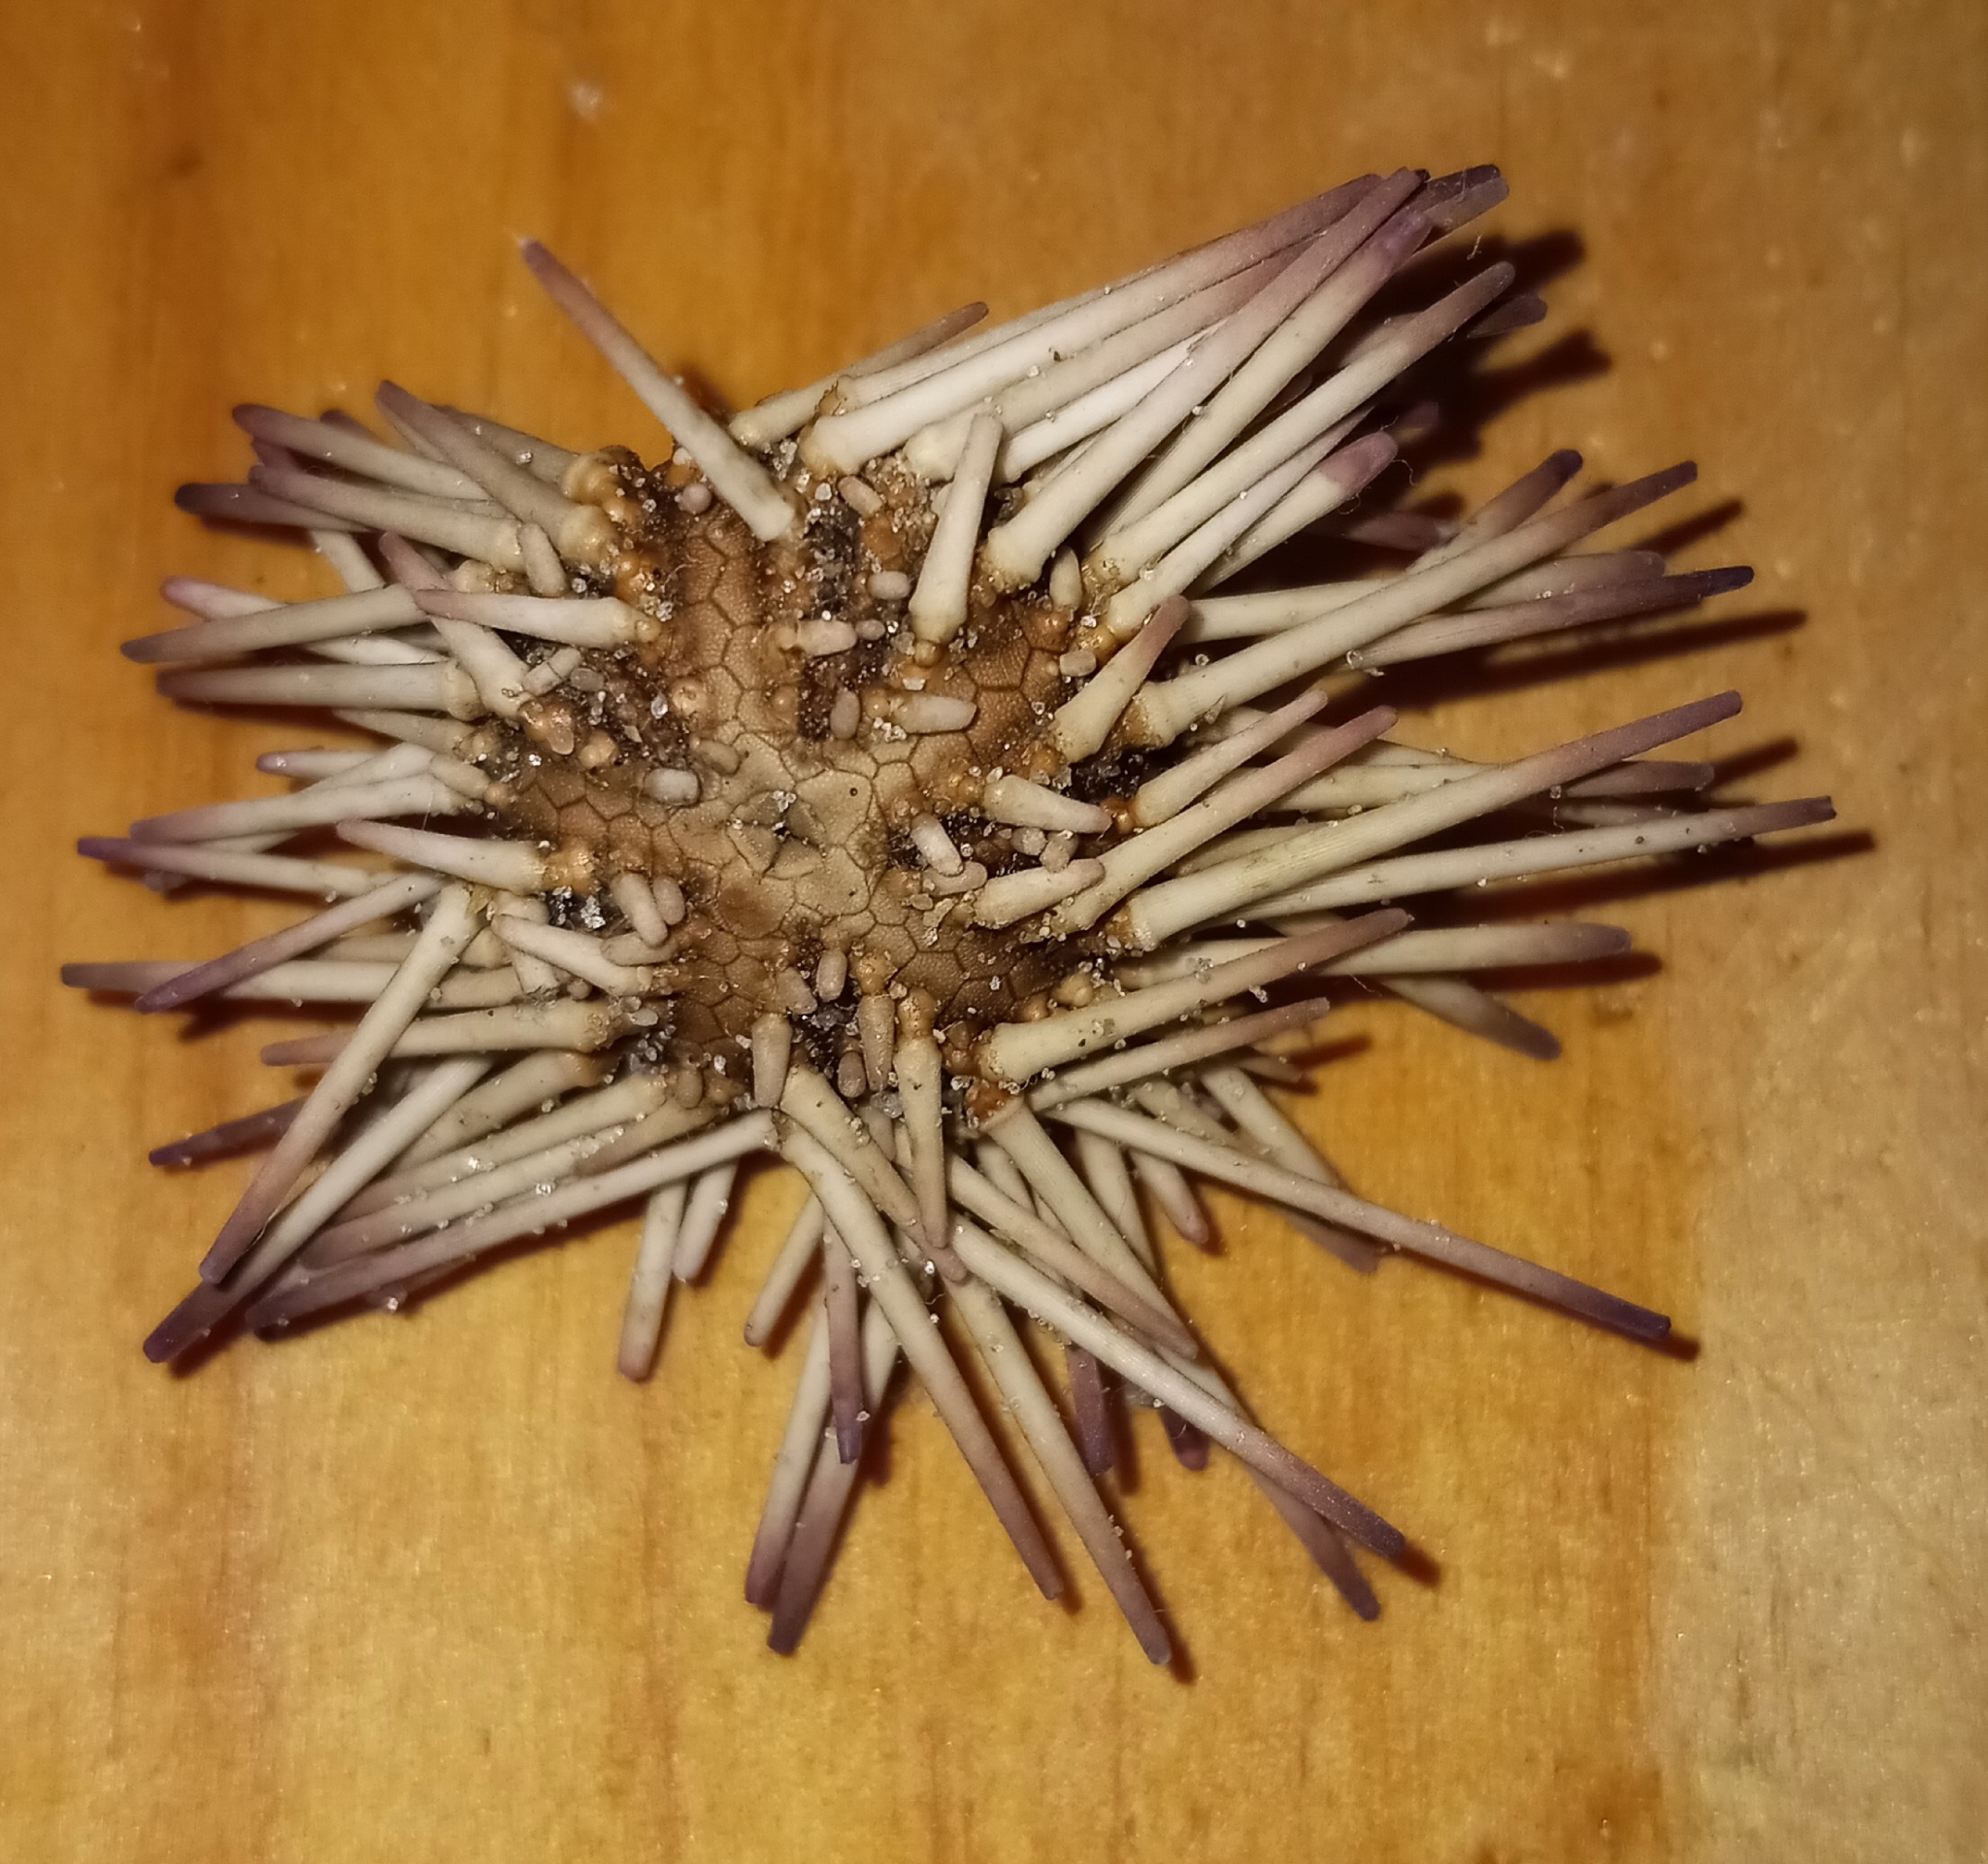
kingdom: Animalia
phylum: Echinodermata
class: Echinoidea
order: Arbacioida
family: Arbaciidae
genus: Arbacia
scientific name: Arbacia punctulata
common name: Purple-spined sea urchin
